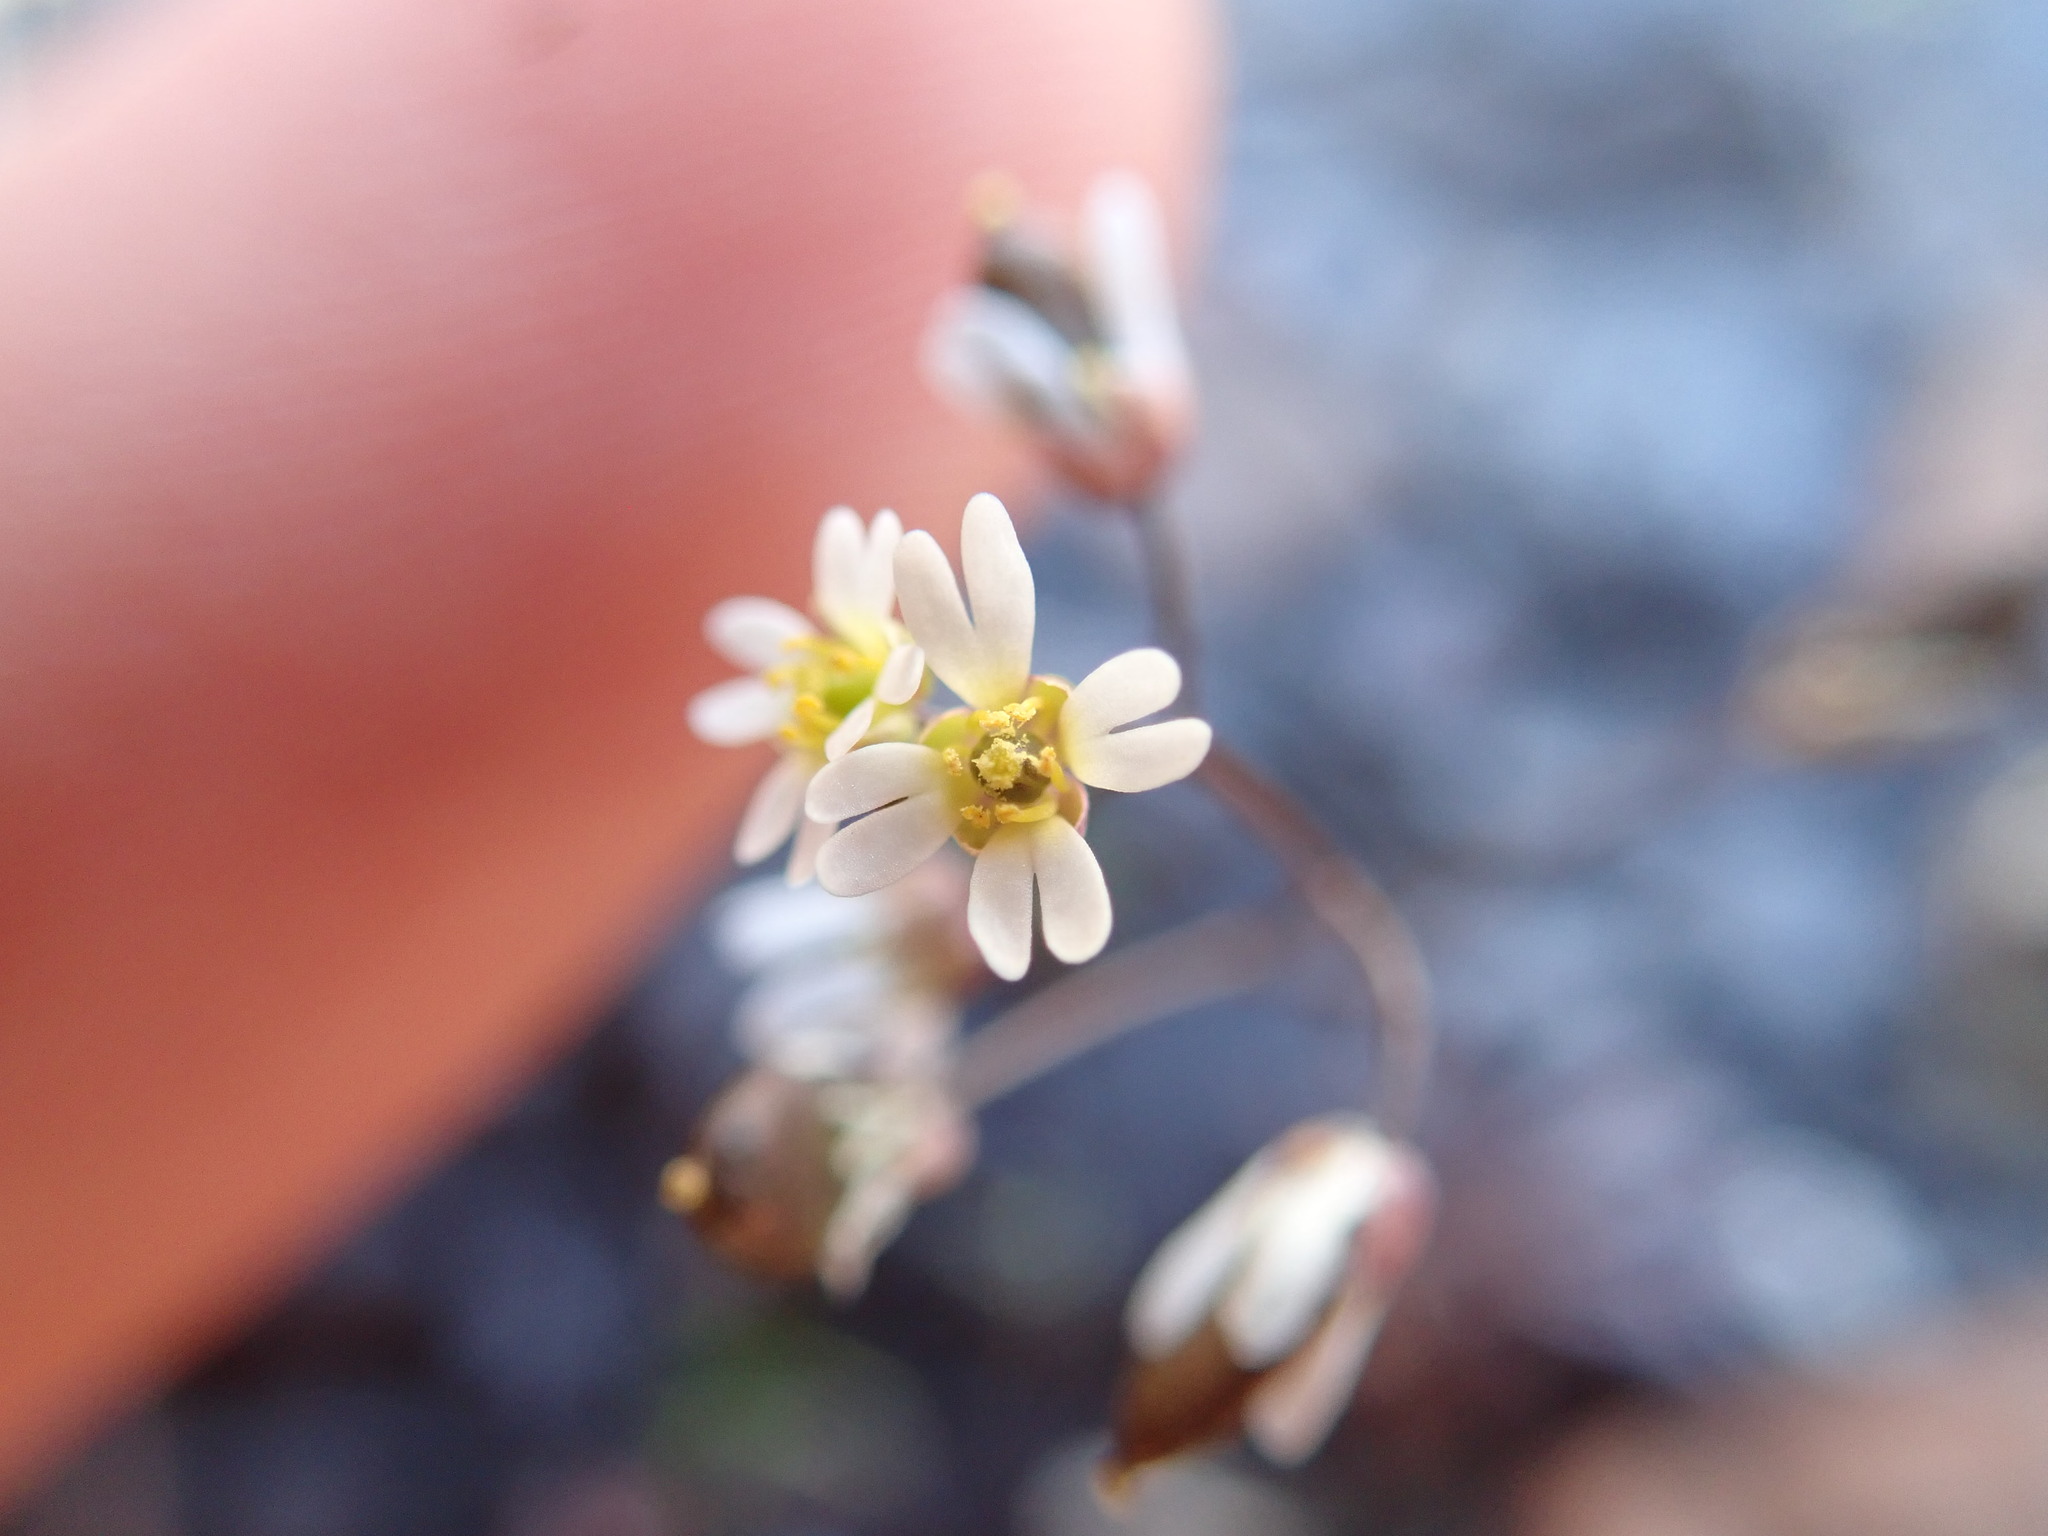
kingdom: Plantae
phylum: Tracheophyta
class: Magnoliopsida
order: Brassicales
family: Brassicaceae
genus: Draba
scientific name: Draba verna
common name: Spring draba
